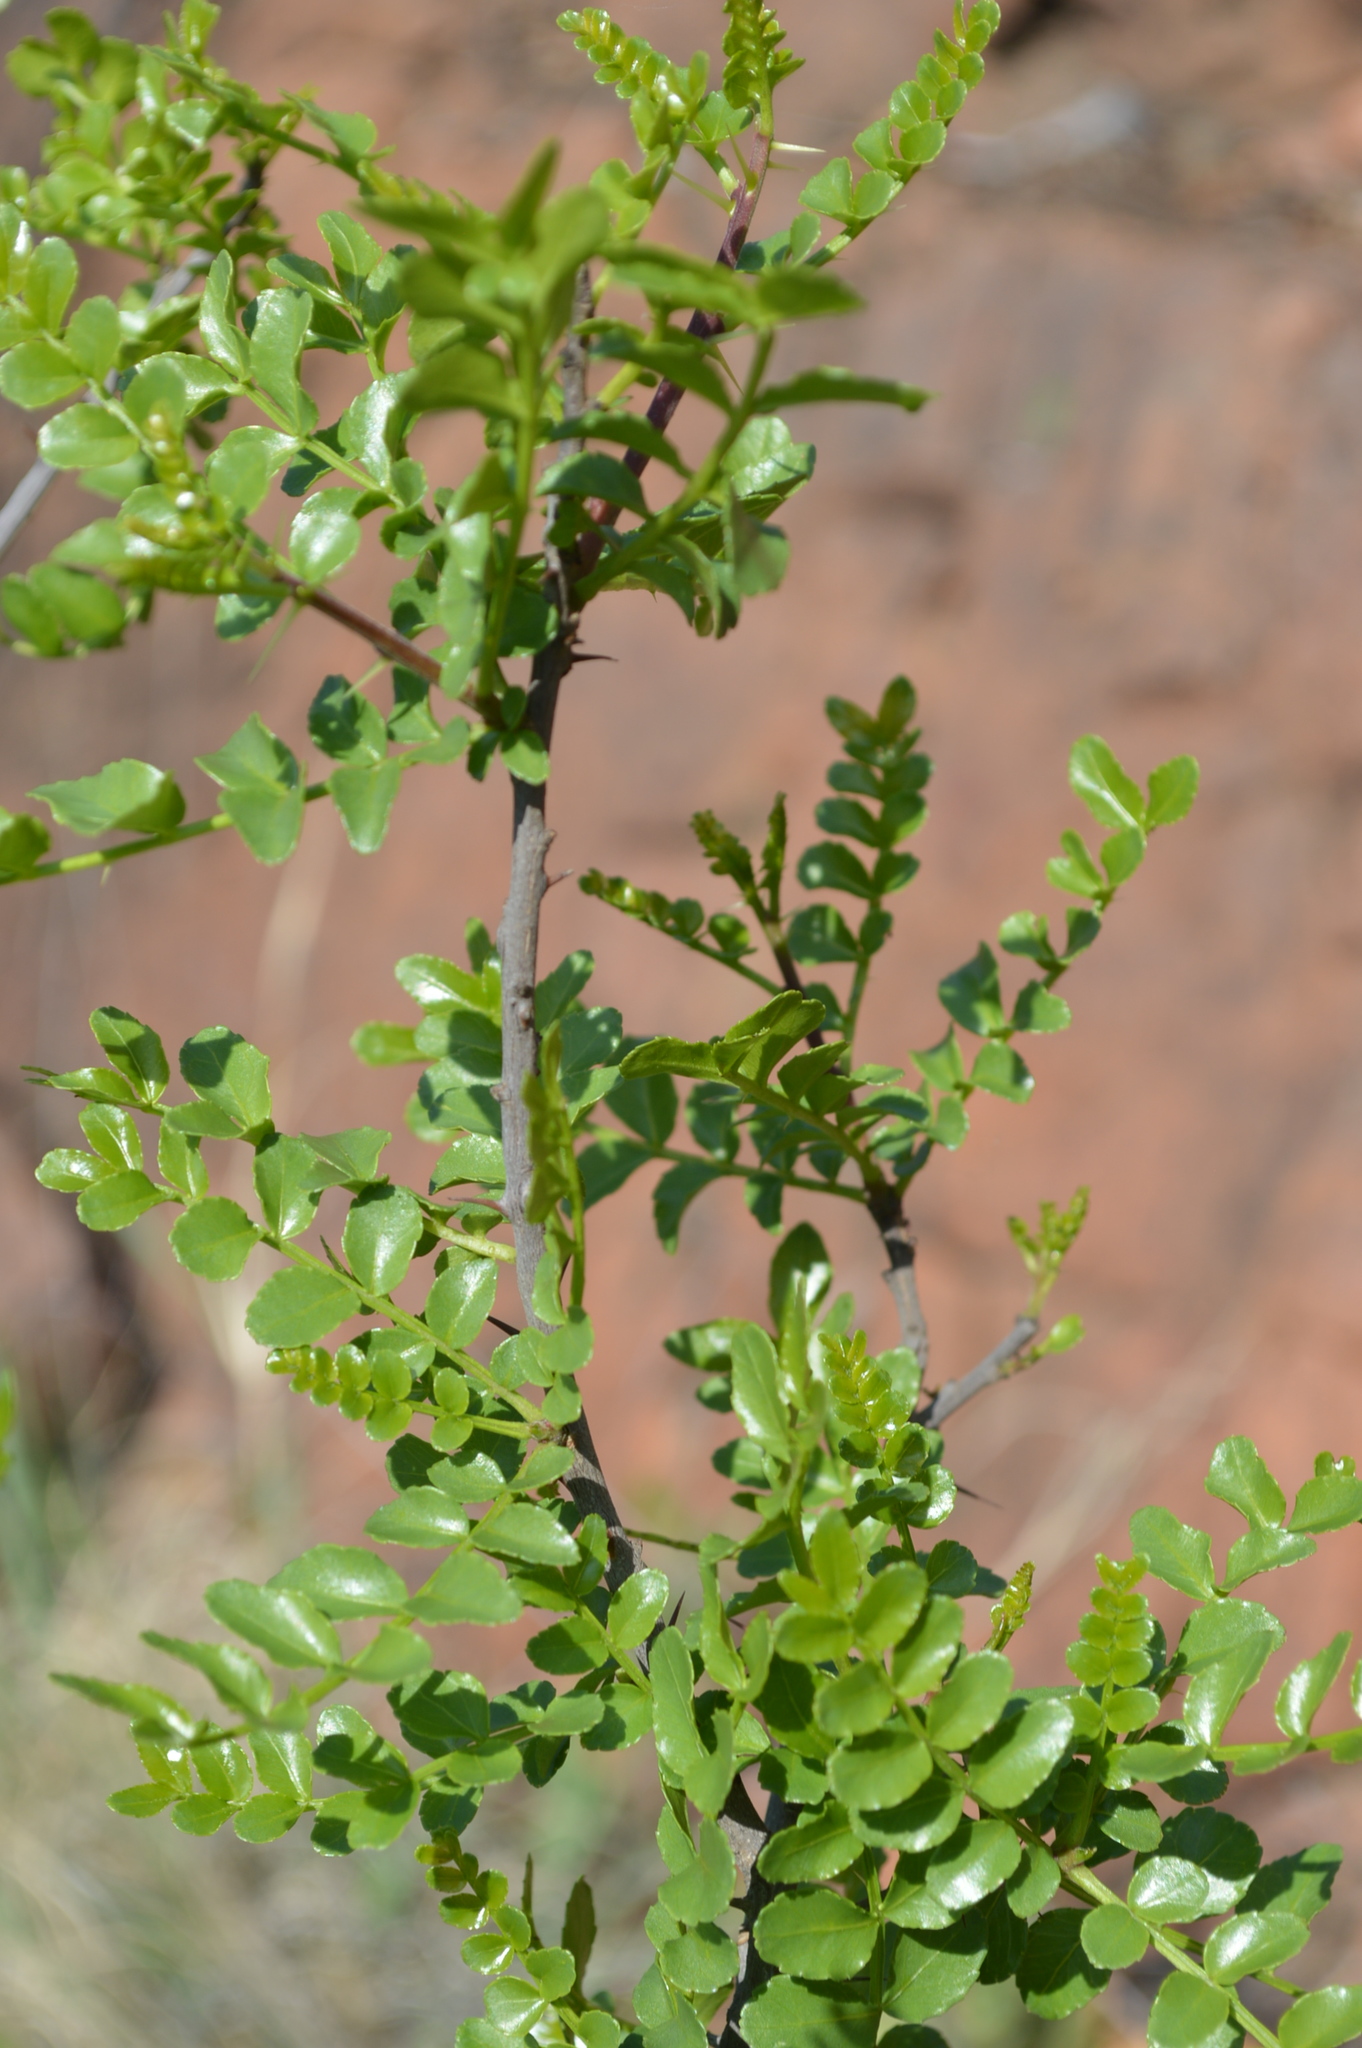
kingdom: Plantae
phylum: Tracheophyta
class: Magnoliopsida
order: Sapindales
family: Rutaceae
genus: Zanthoxylum
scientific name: Zanthoxylum capense
